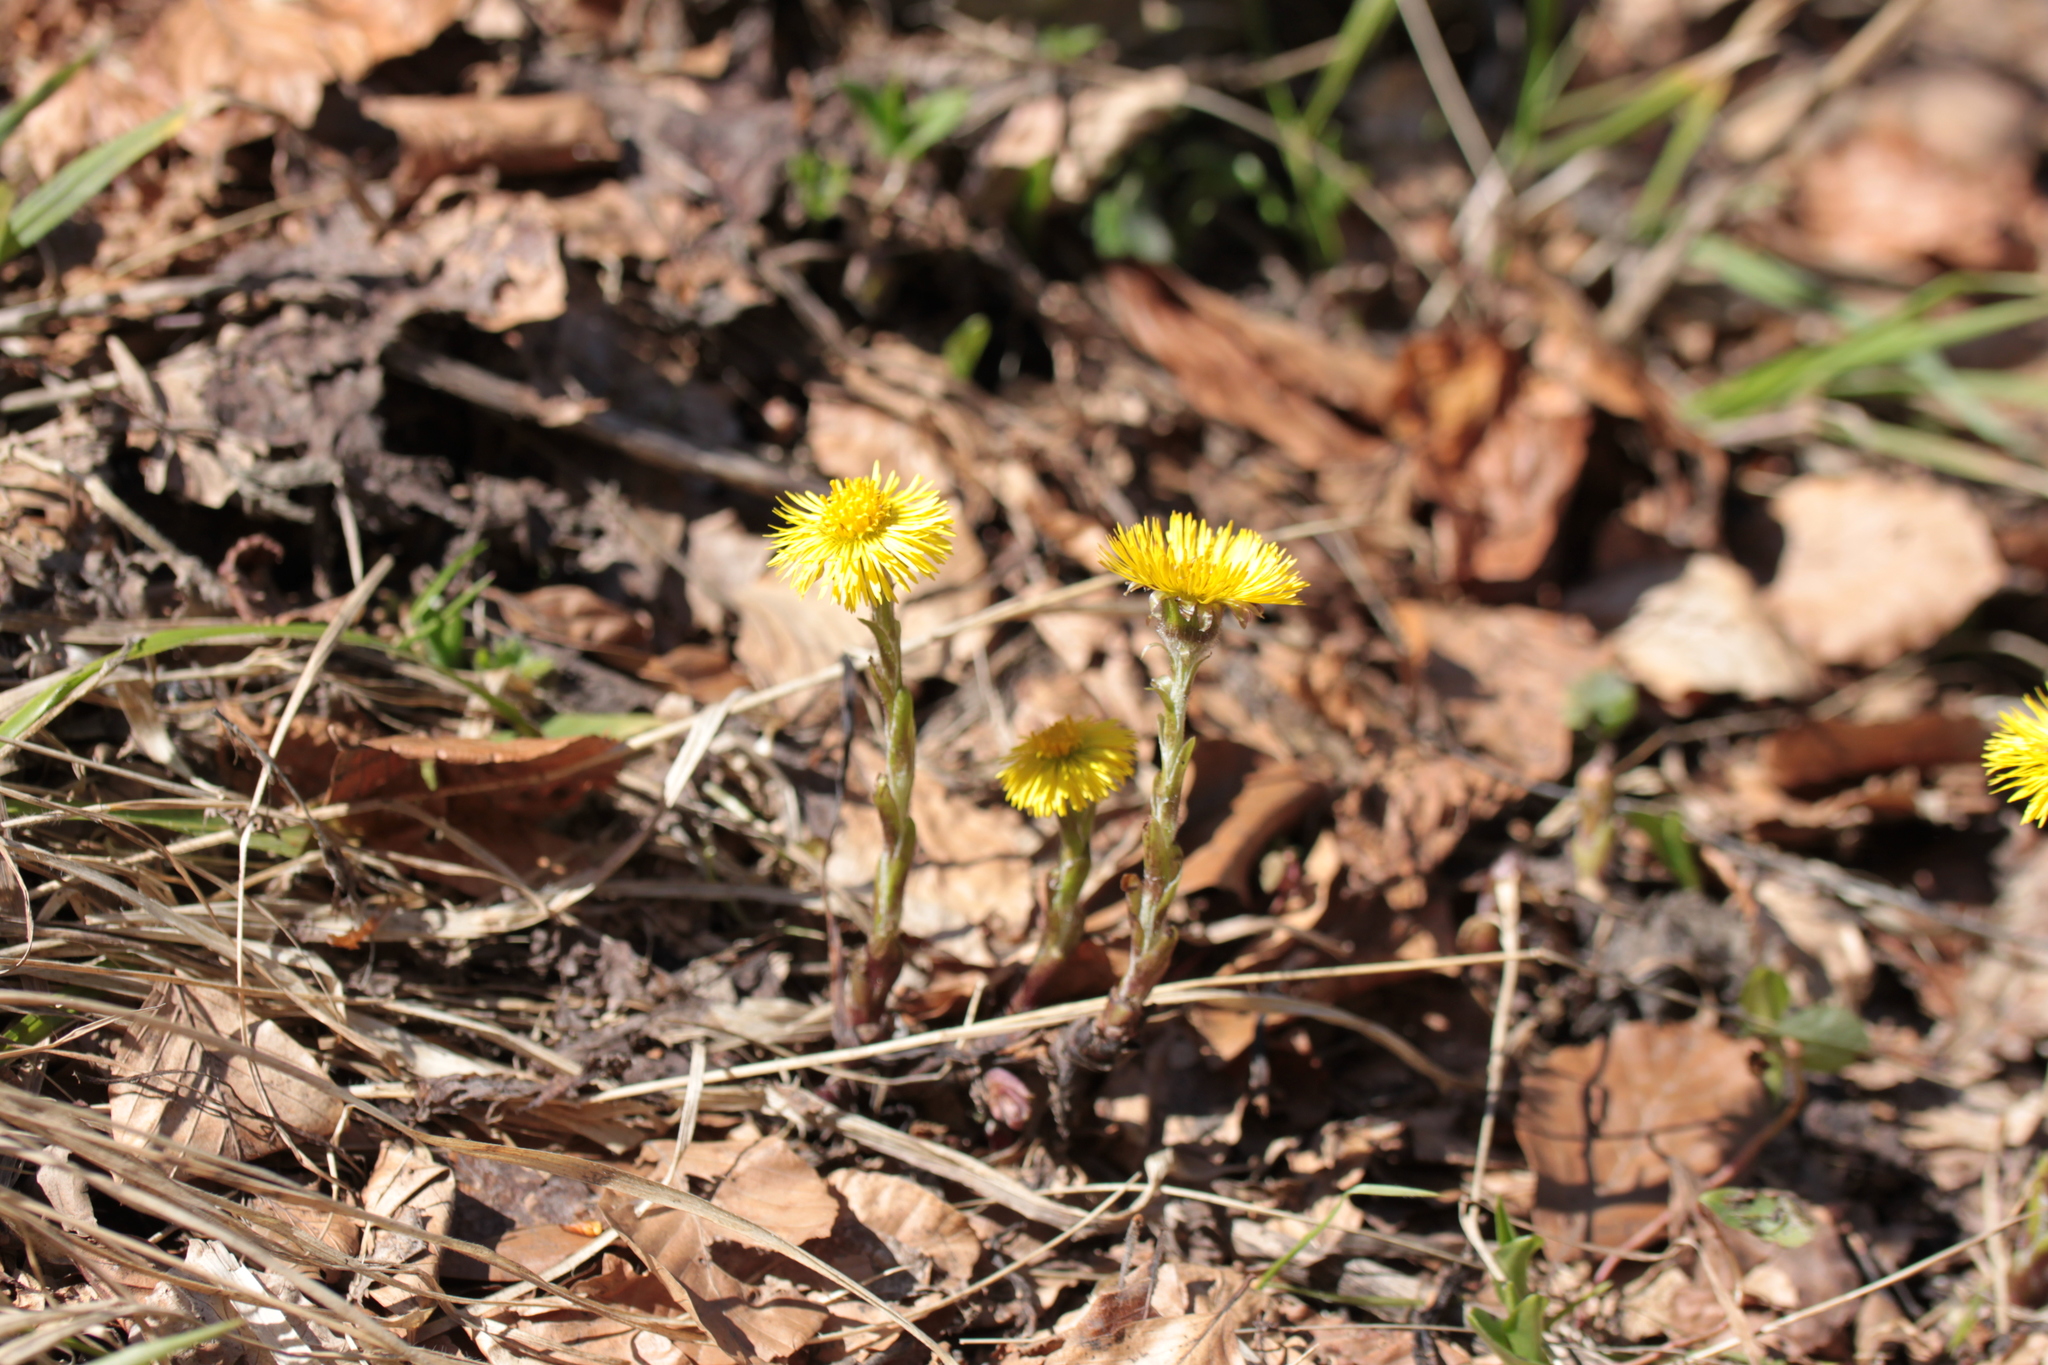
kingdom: Plantae
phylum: Tracheophyta
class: Magnoliopsida
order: Asterales
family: Asteraceae
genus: Tussilago
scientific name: Tussilago farfara
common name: Coltsfoot
